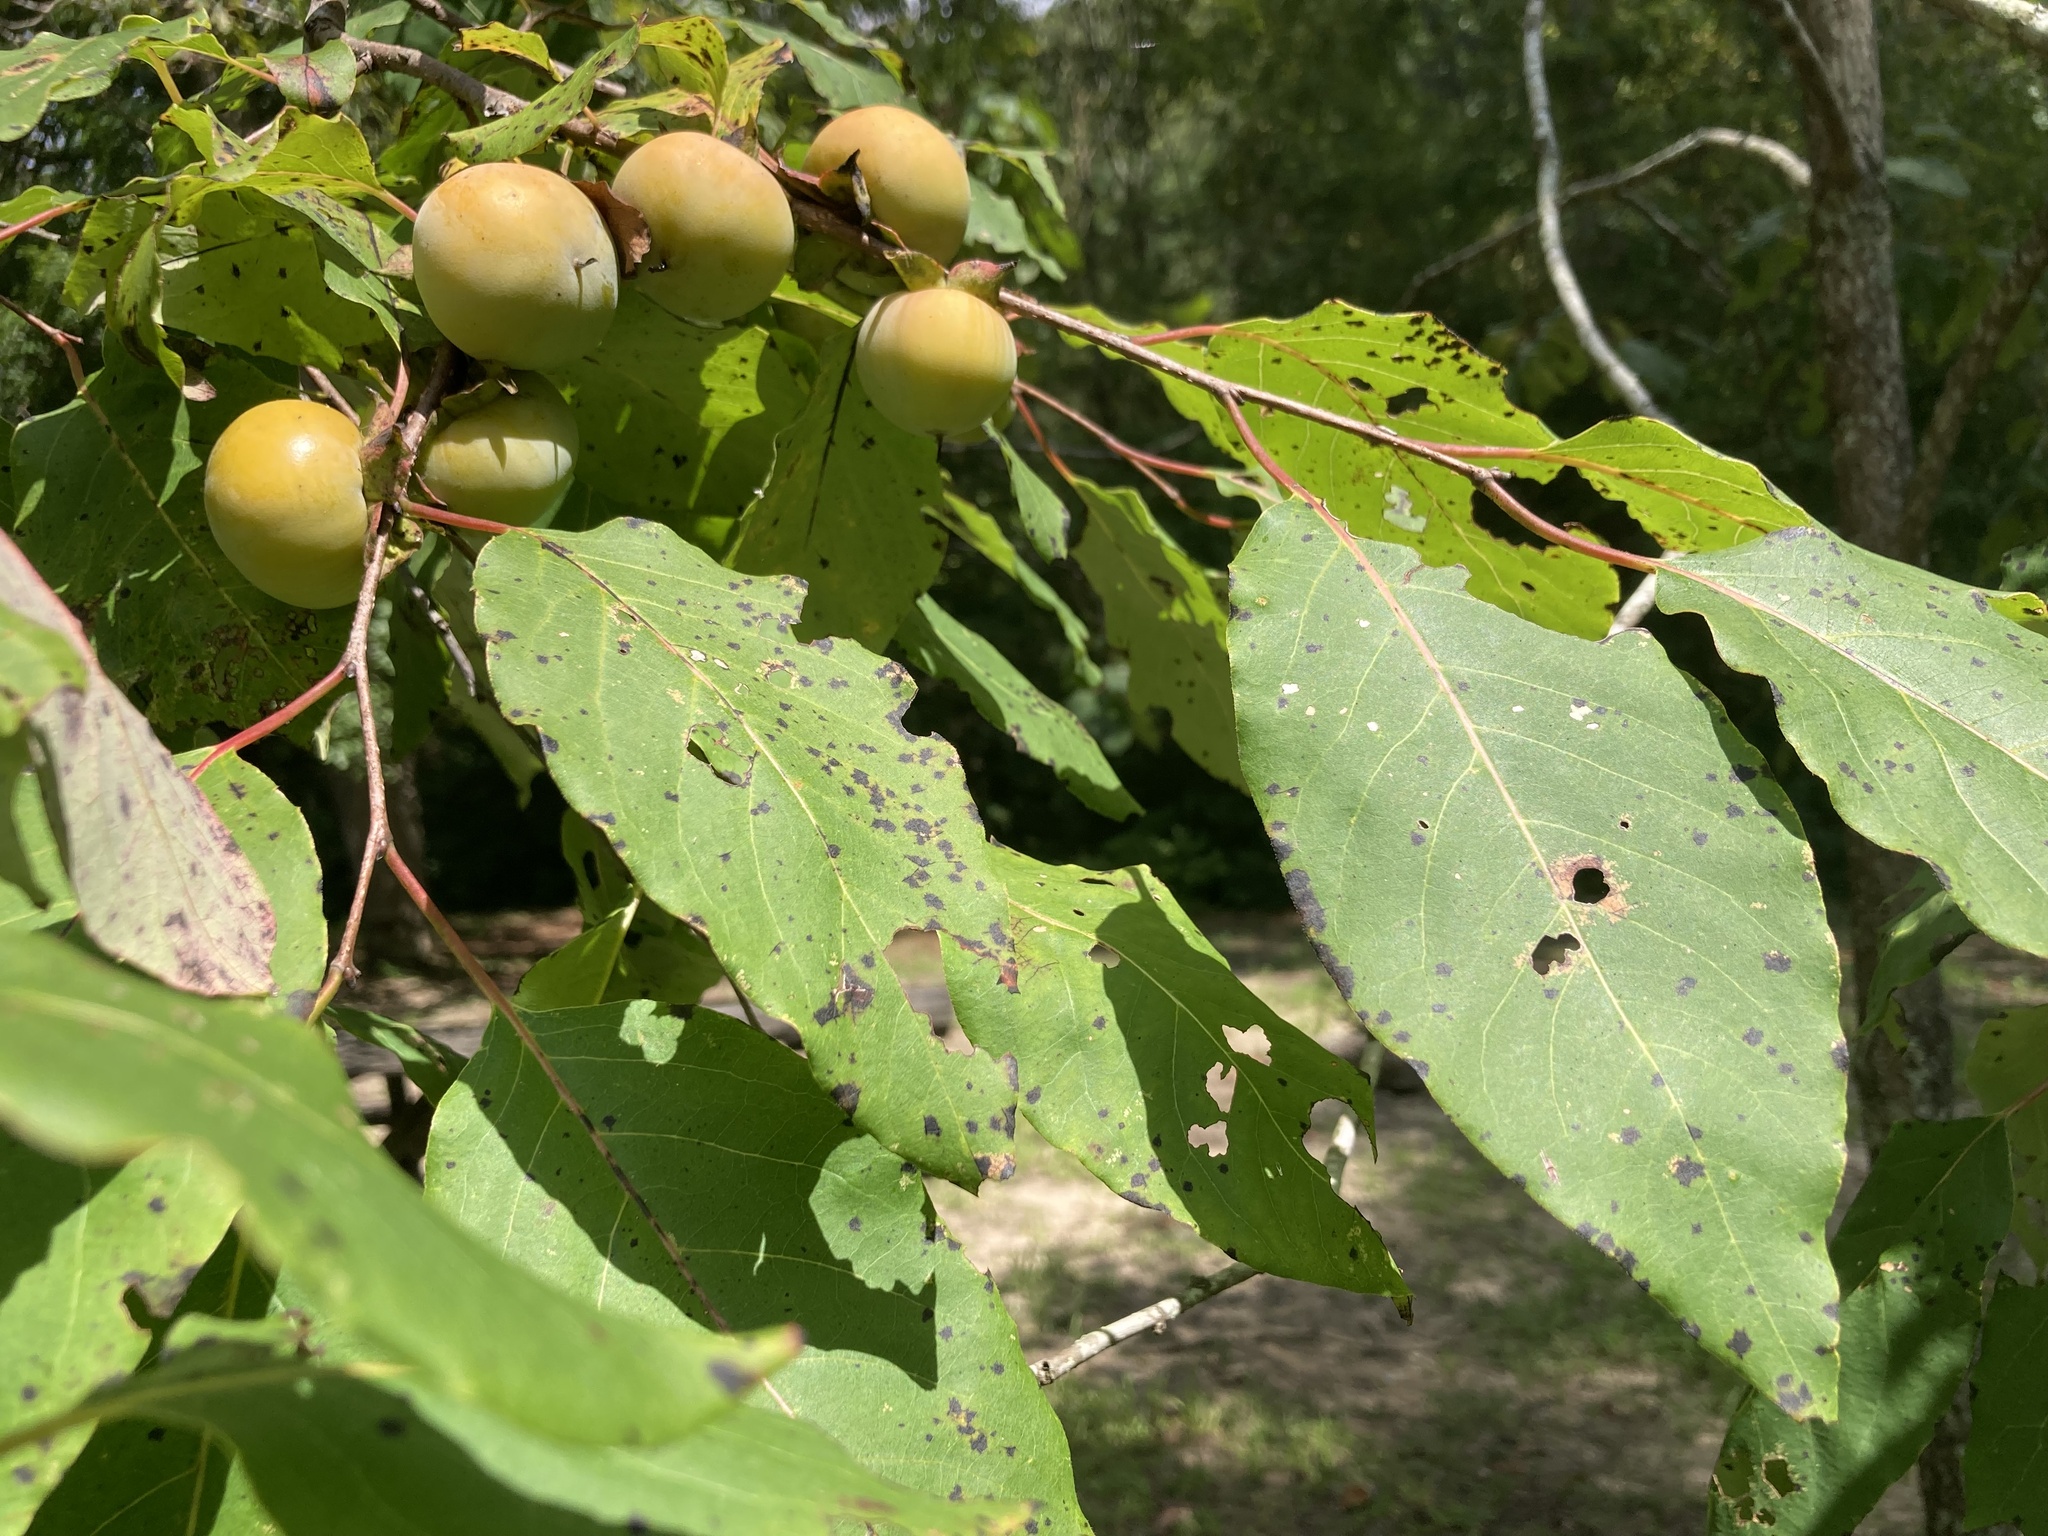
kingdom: Plantae
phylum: Tracheophyta
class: Magnoliopsida
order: Ericales
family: Ebenaceae
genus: Diospyros
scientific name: Diospyros virginiana
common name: Persimmon
